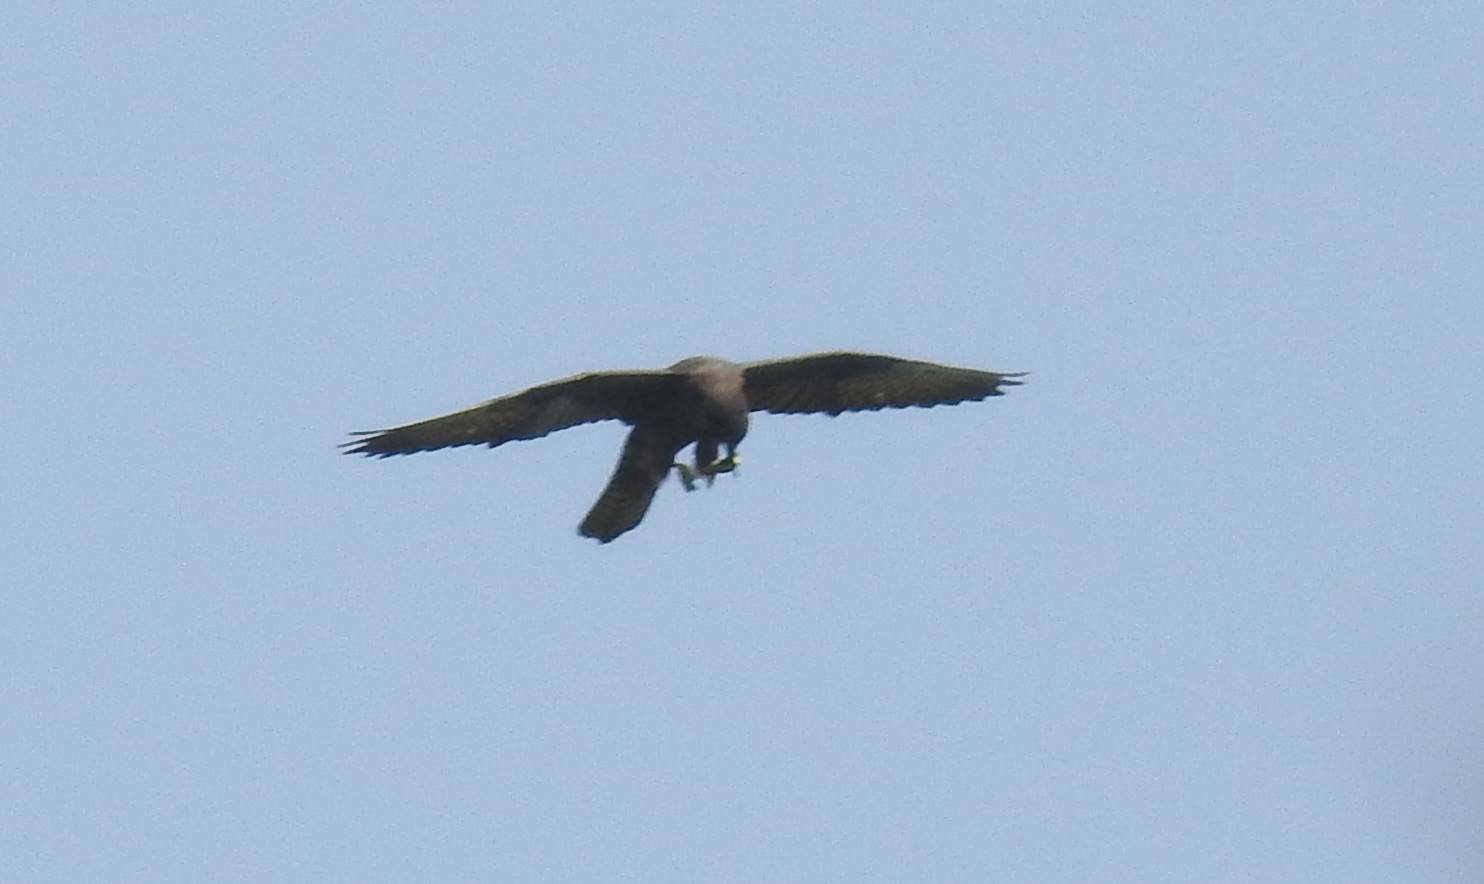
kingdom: Animalia
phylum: Chordata
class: Aves
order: Falconiformes
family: Falconidae
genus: Falco
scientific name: Falco eleonorae
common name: Eleonora's falcon
